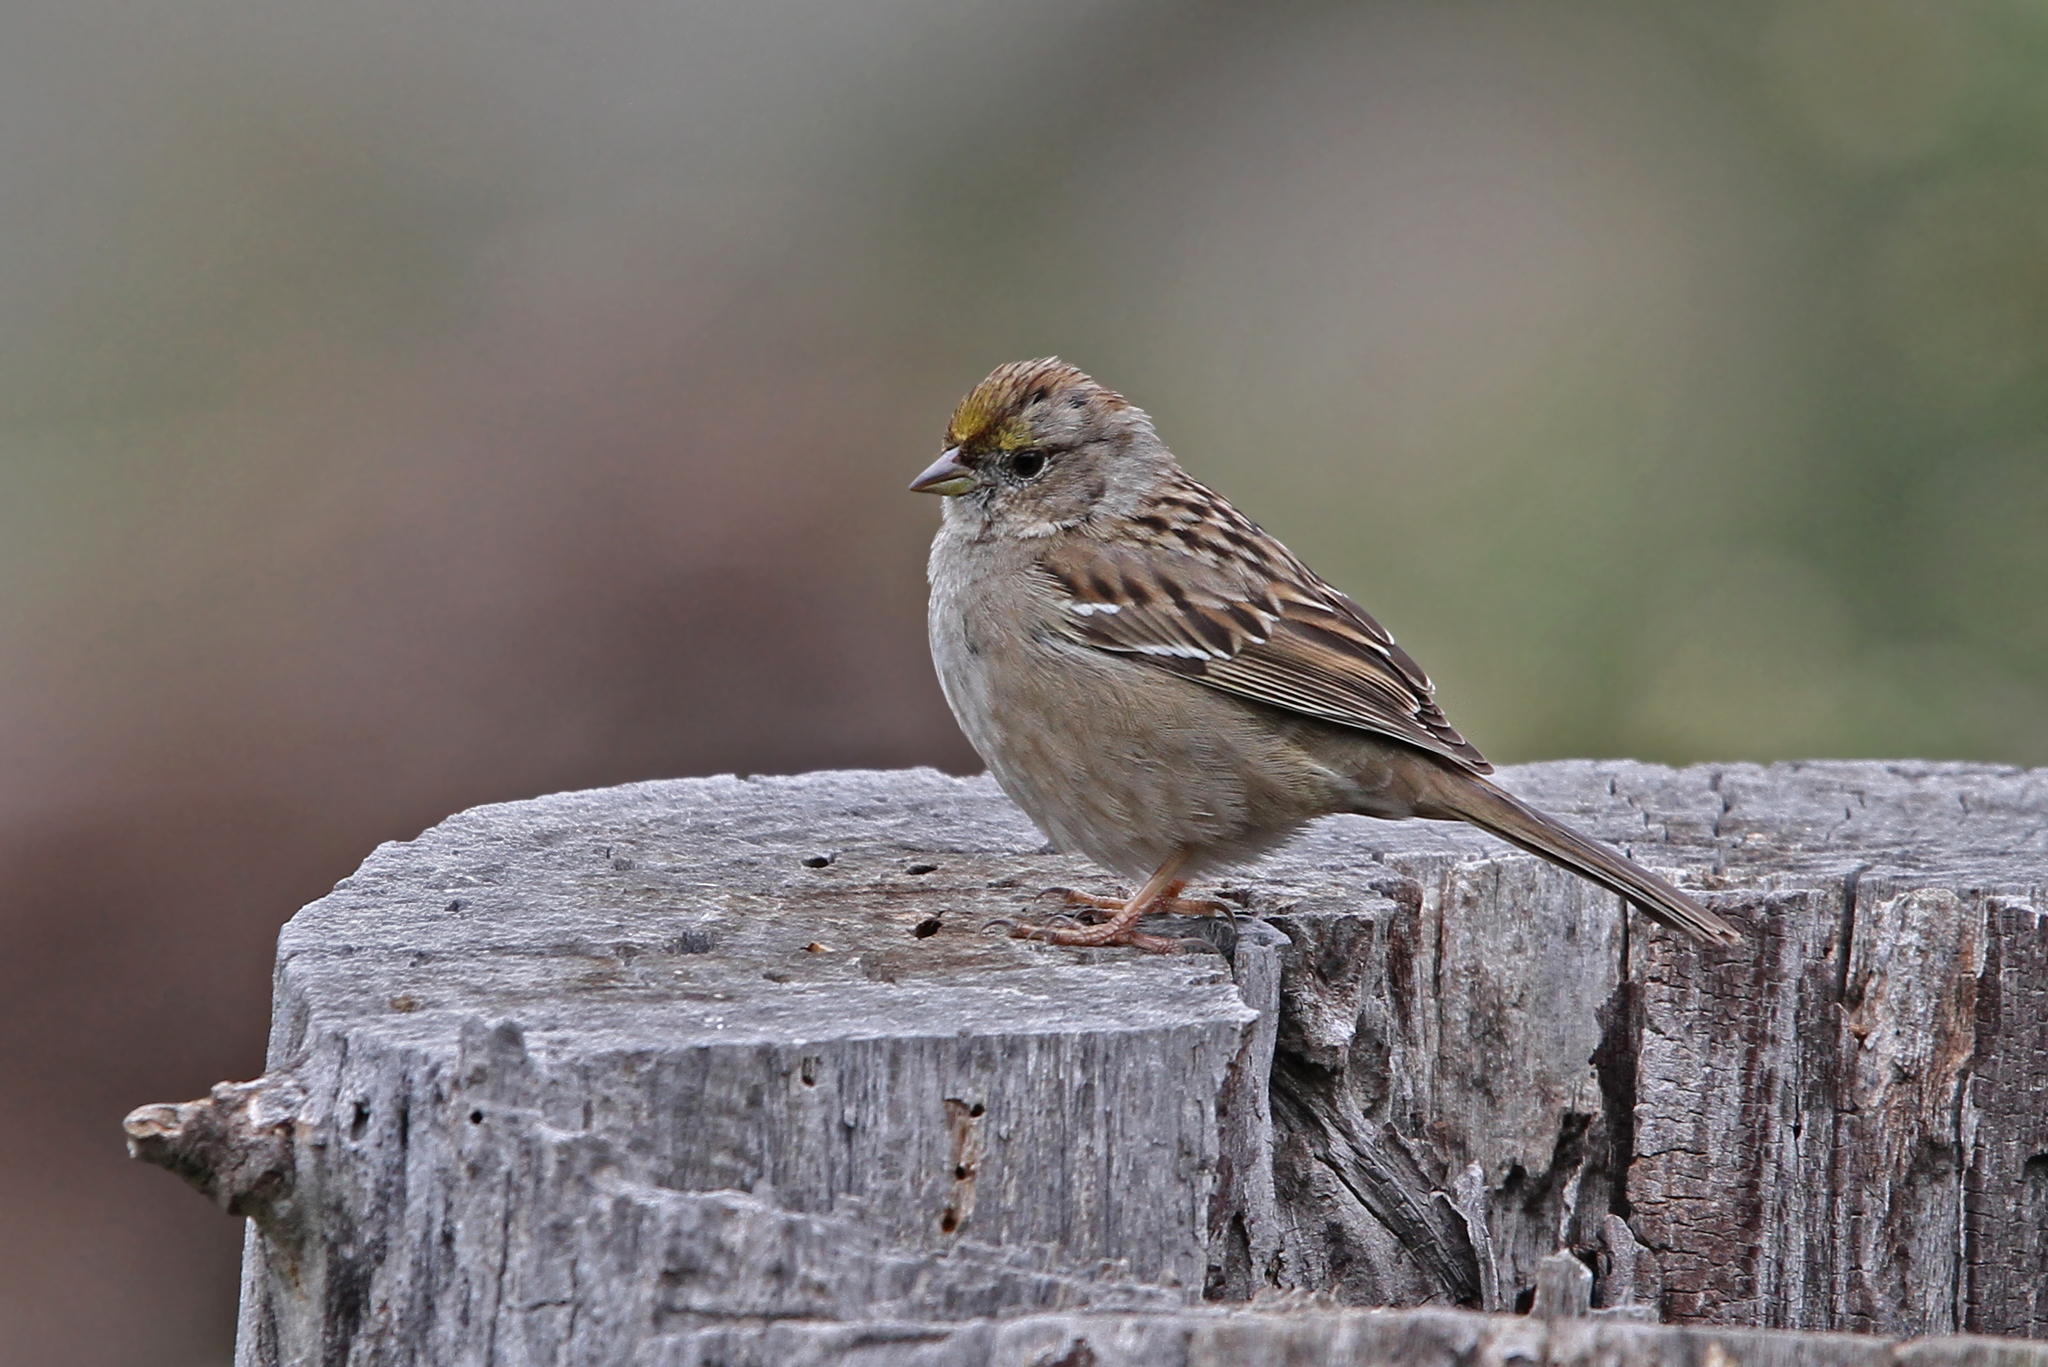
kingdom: Animalia
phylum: Chordata
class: Aves
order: Passeriformes
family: Passerellidae
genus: Zonotrichia
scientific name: Zonotrichia atricapilla
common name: Golden-crowned sparrow
